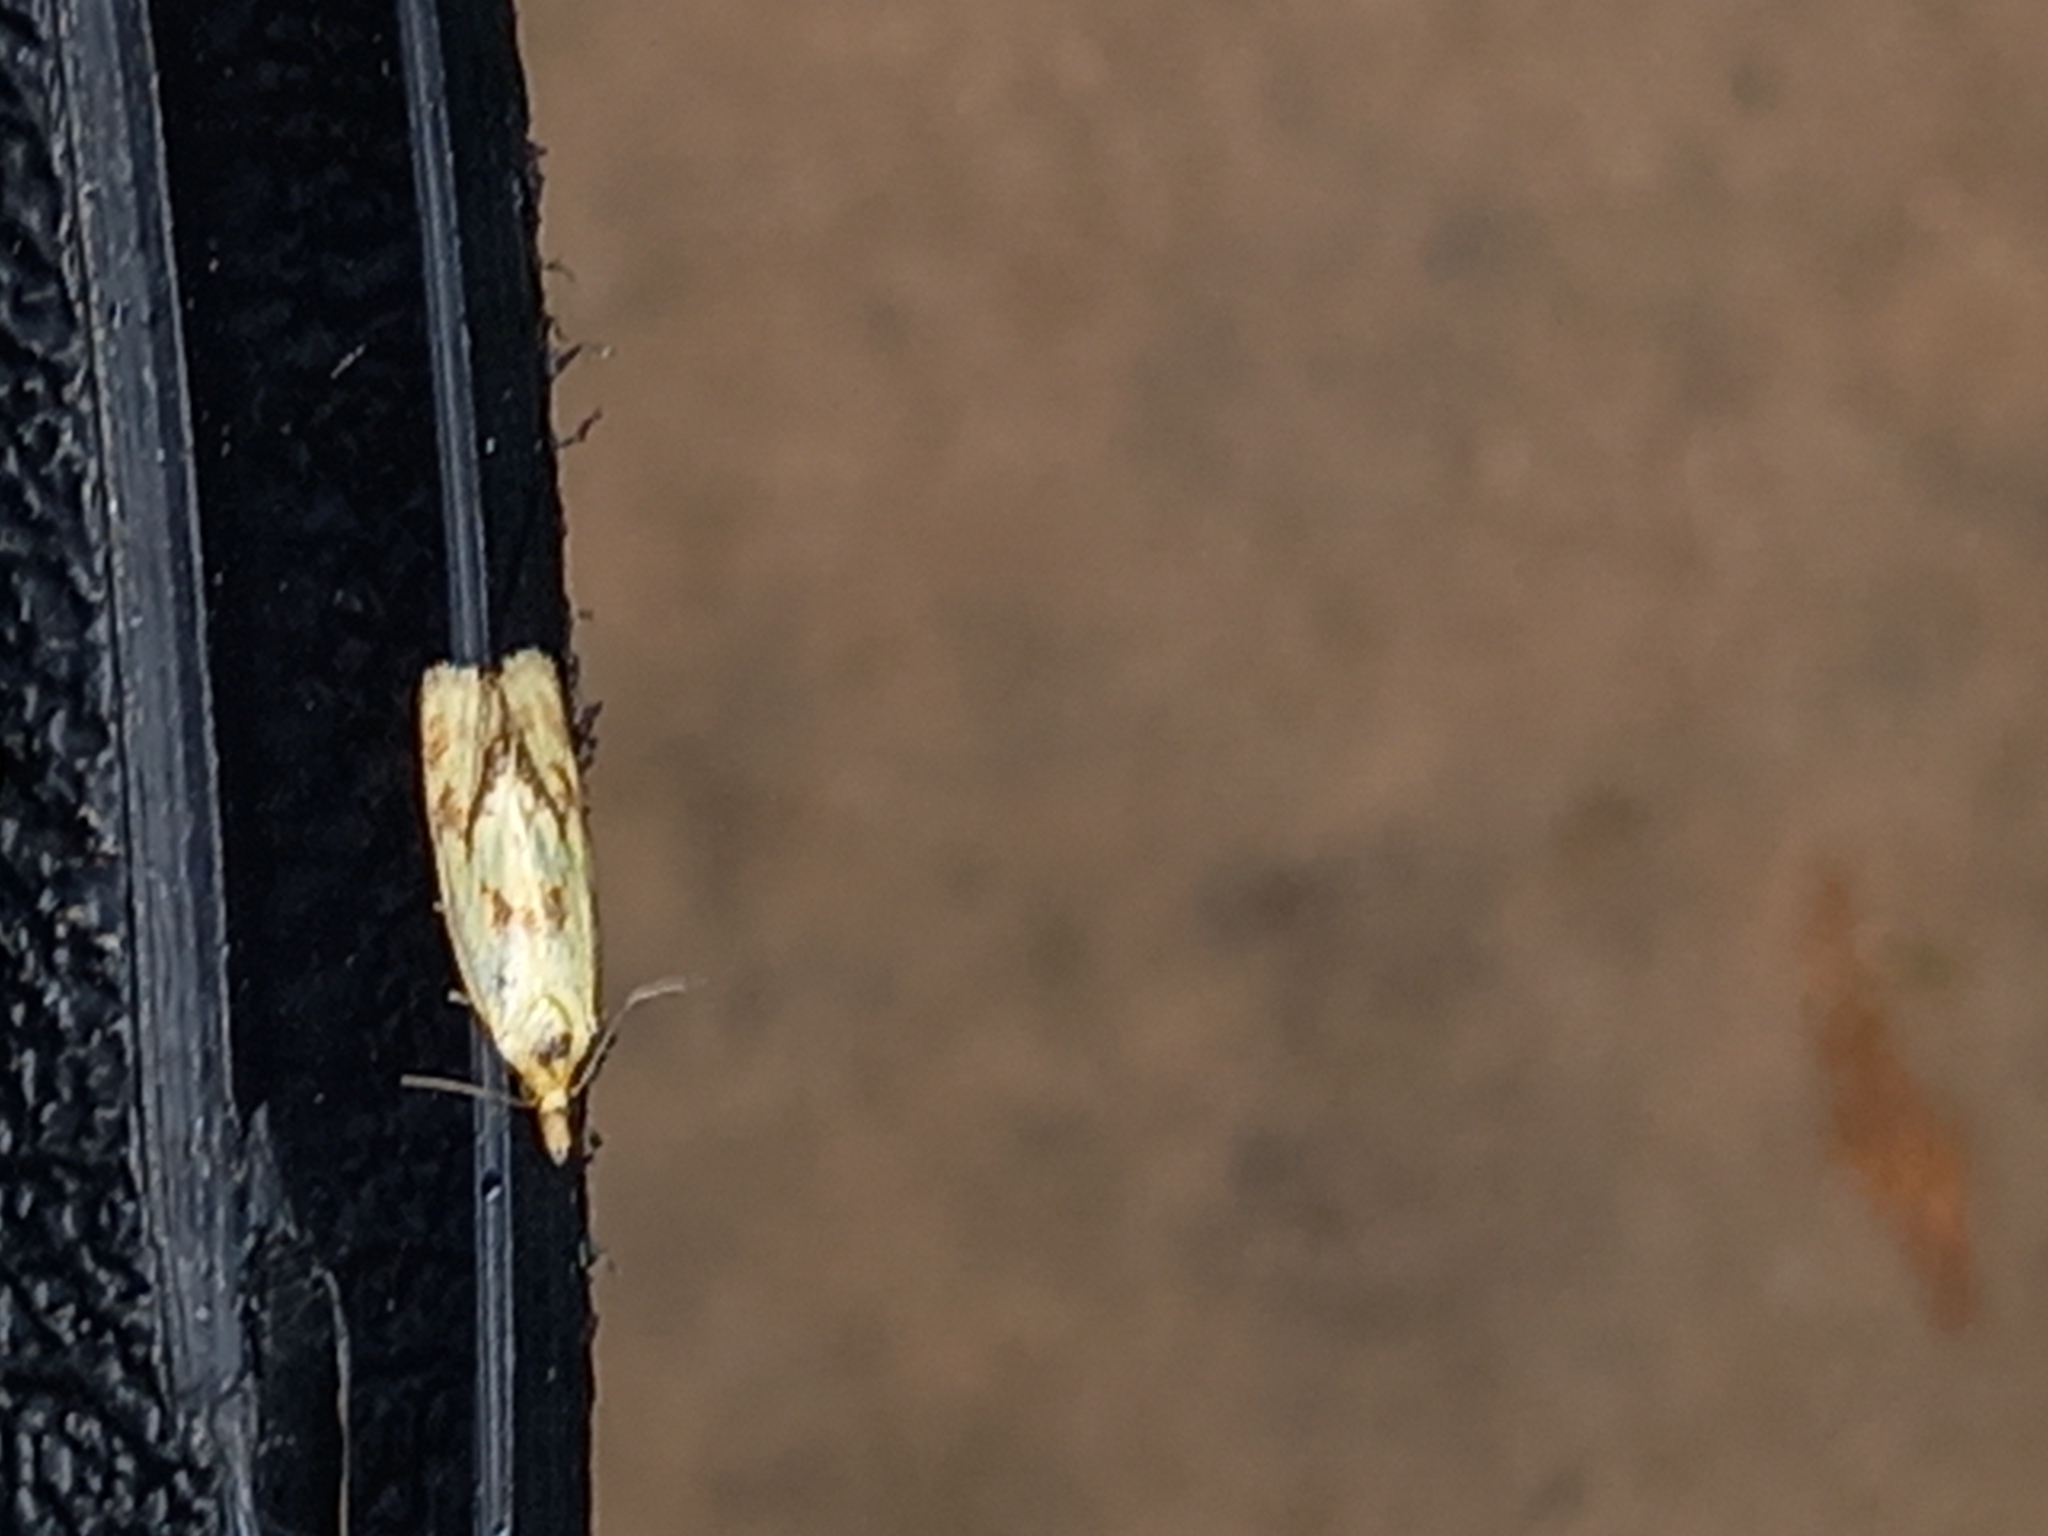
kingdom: Animalia
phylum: Arthropoda
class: Insecta
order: Lepidoptera
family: Tortricidae
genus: Agapeta
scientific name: Agapeta hamana
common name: Common yellow conch
